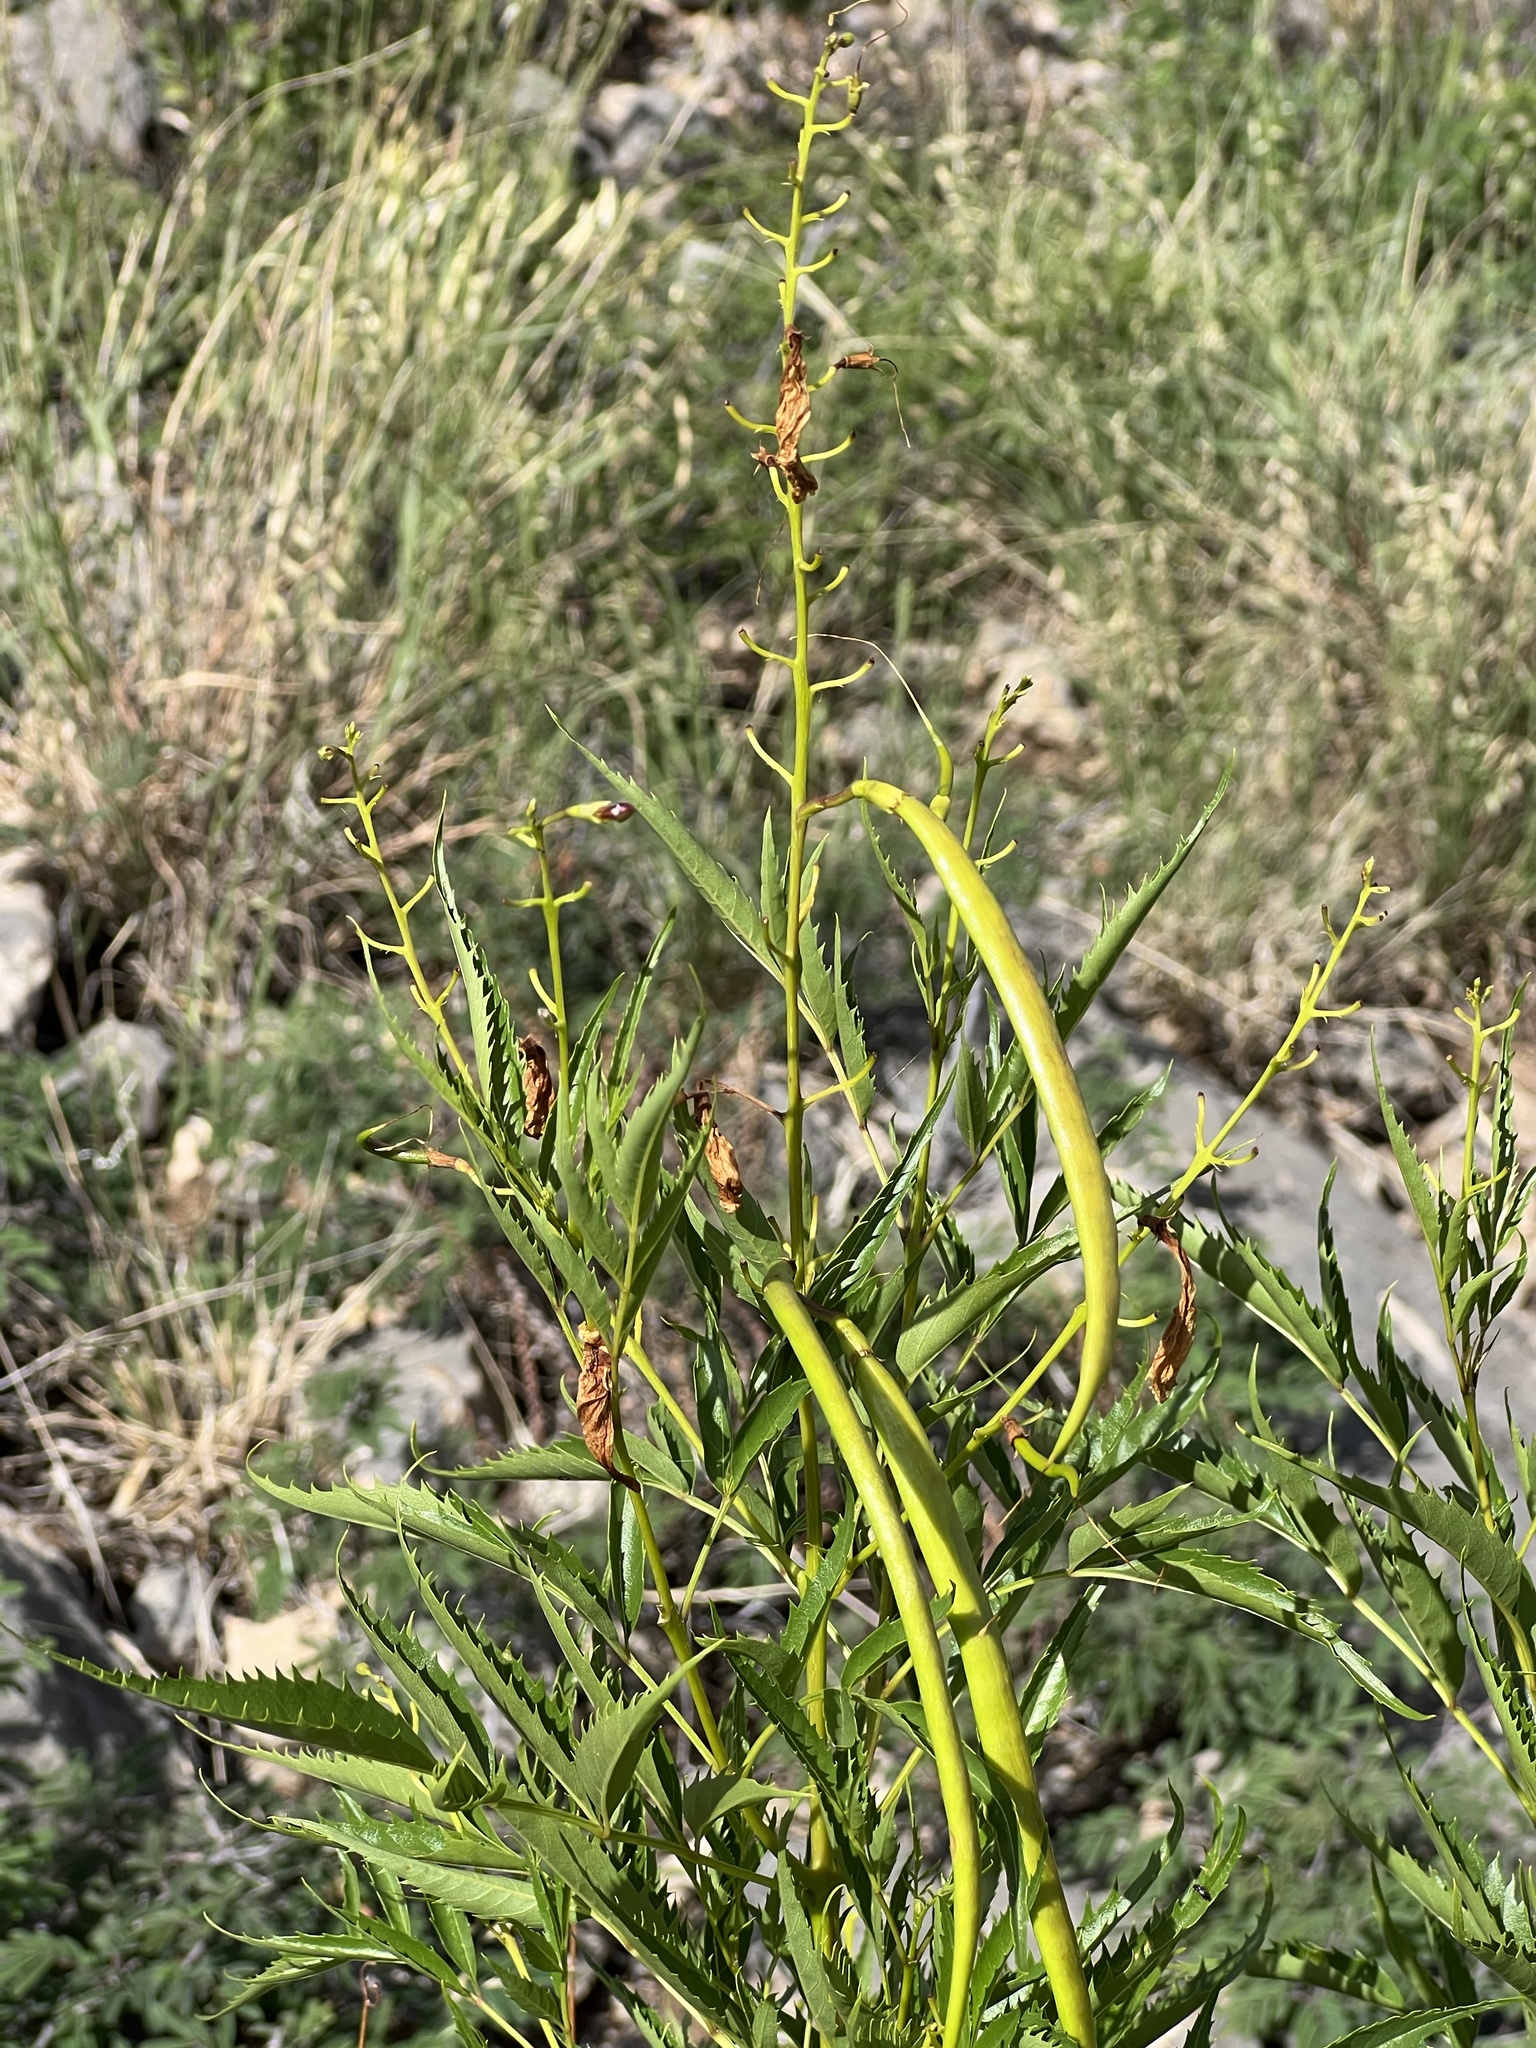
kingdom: Plantae
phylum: Tracheophyta
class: Magnoliopsida
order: Lamiales
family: Bignoniaceae
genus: Tecoma
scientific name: Tecoma stans
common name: Yellow trumpetbush
